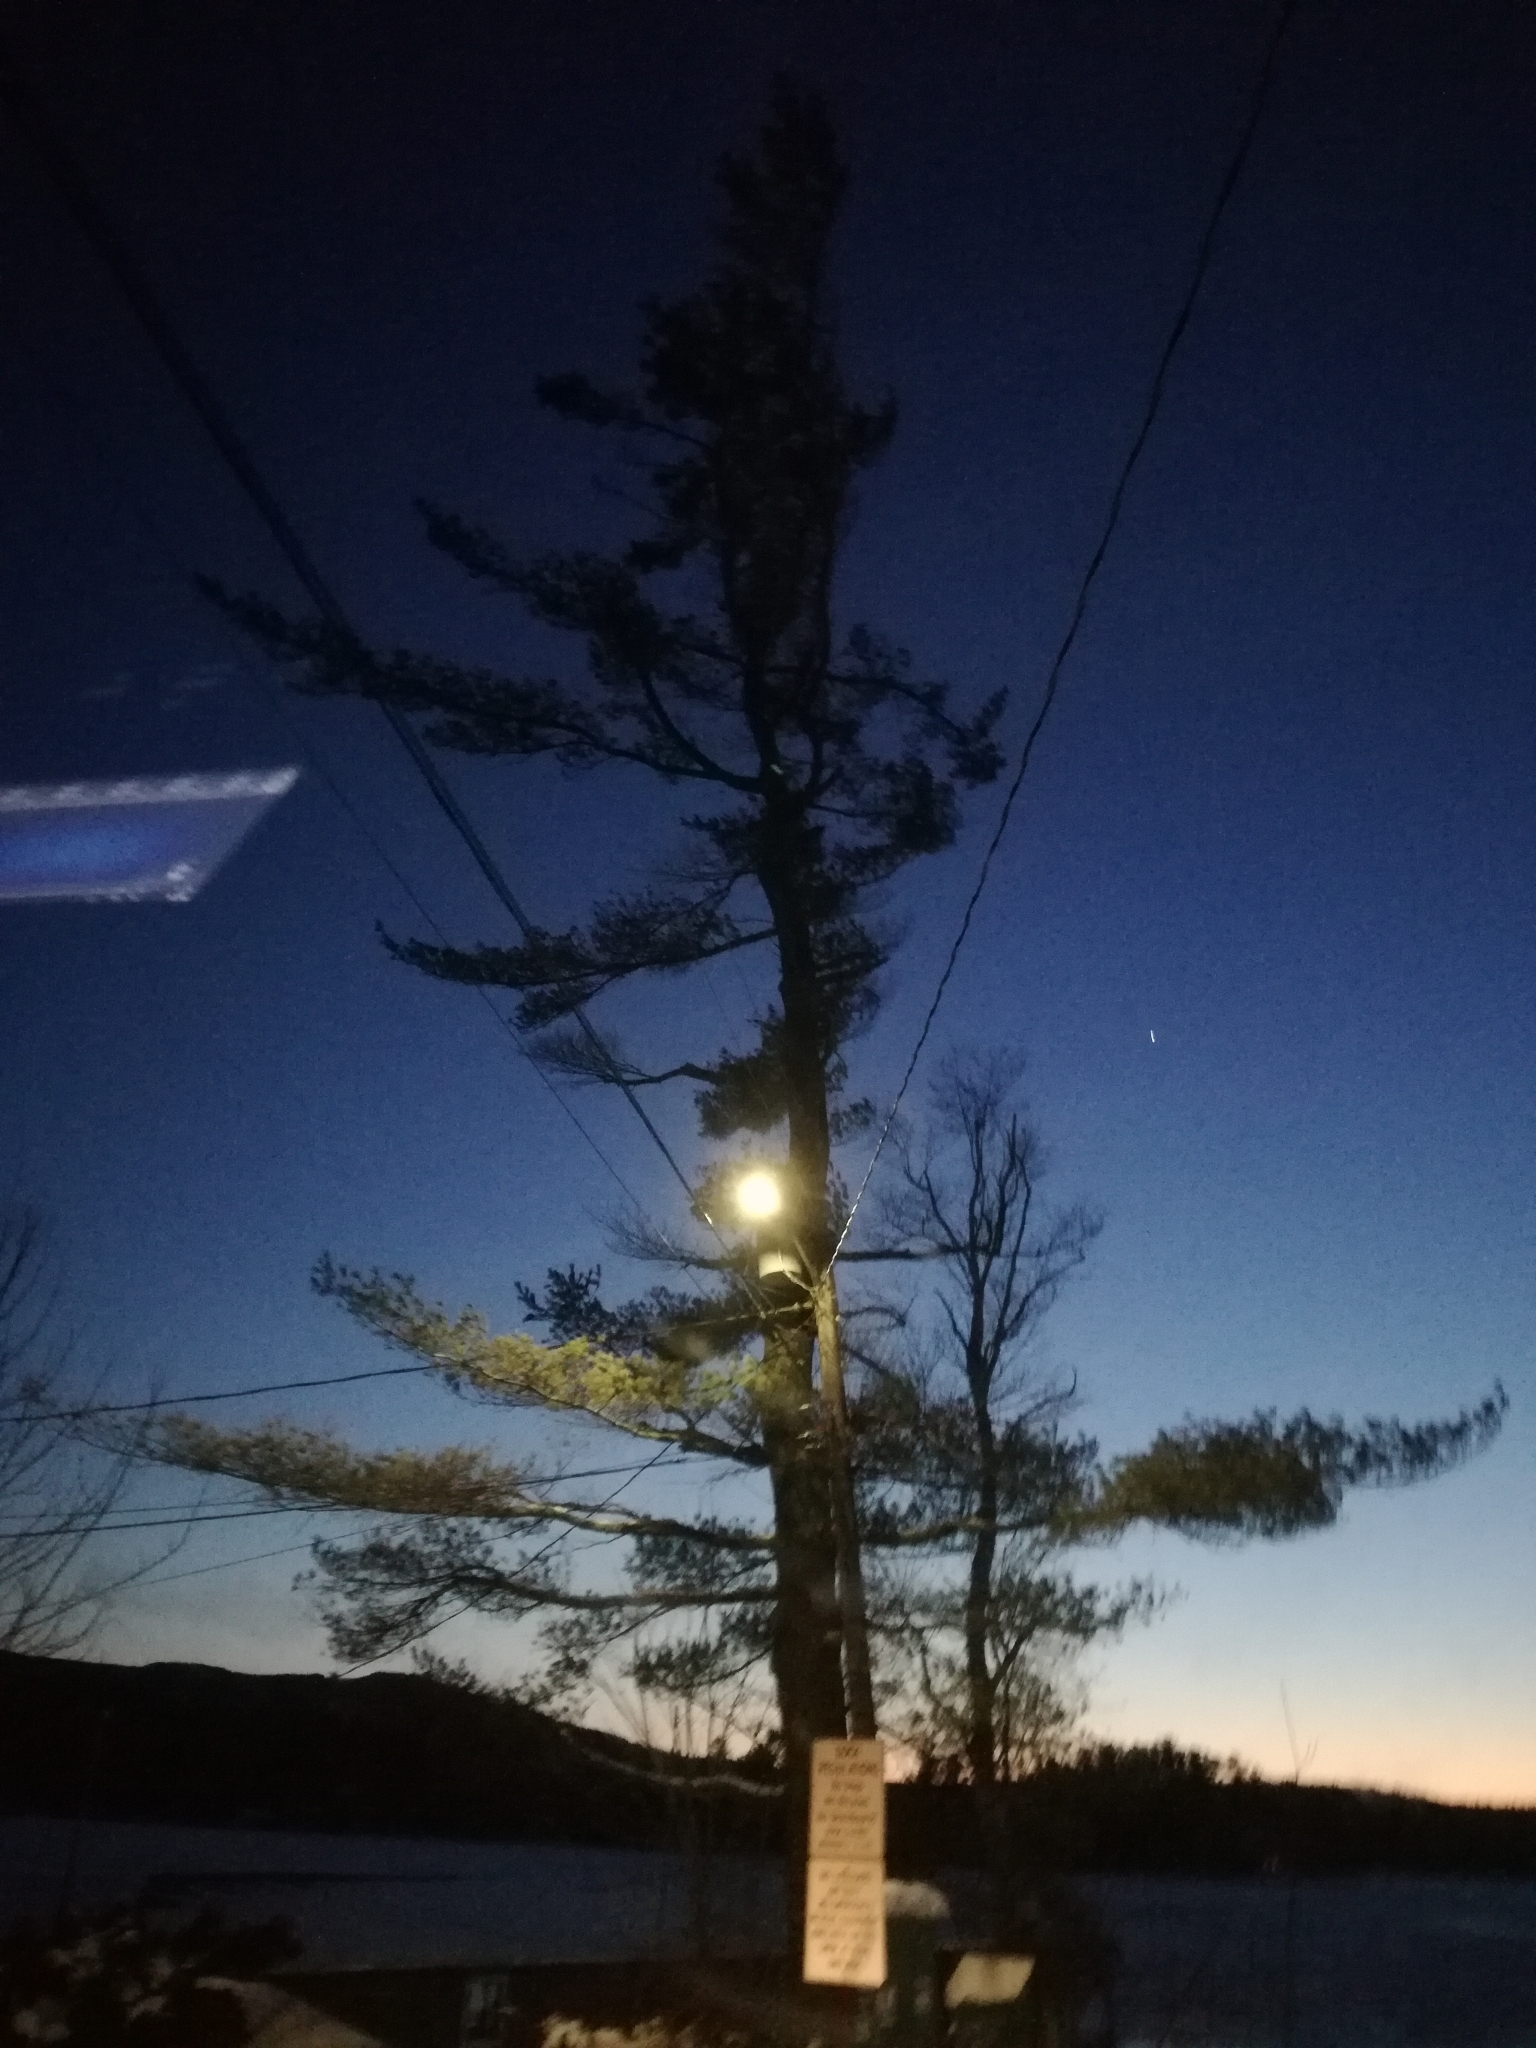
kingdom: Plantae
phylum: Tracheophyta
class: Pinopsida
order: Pinales
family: Pinaceae
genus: Pinus
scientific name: Pinus strobus
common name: Weymouth pine
